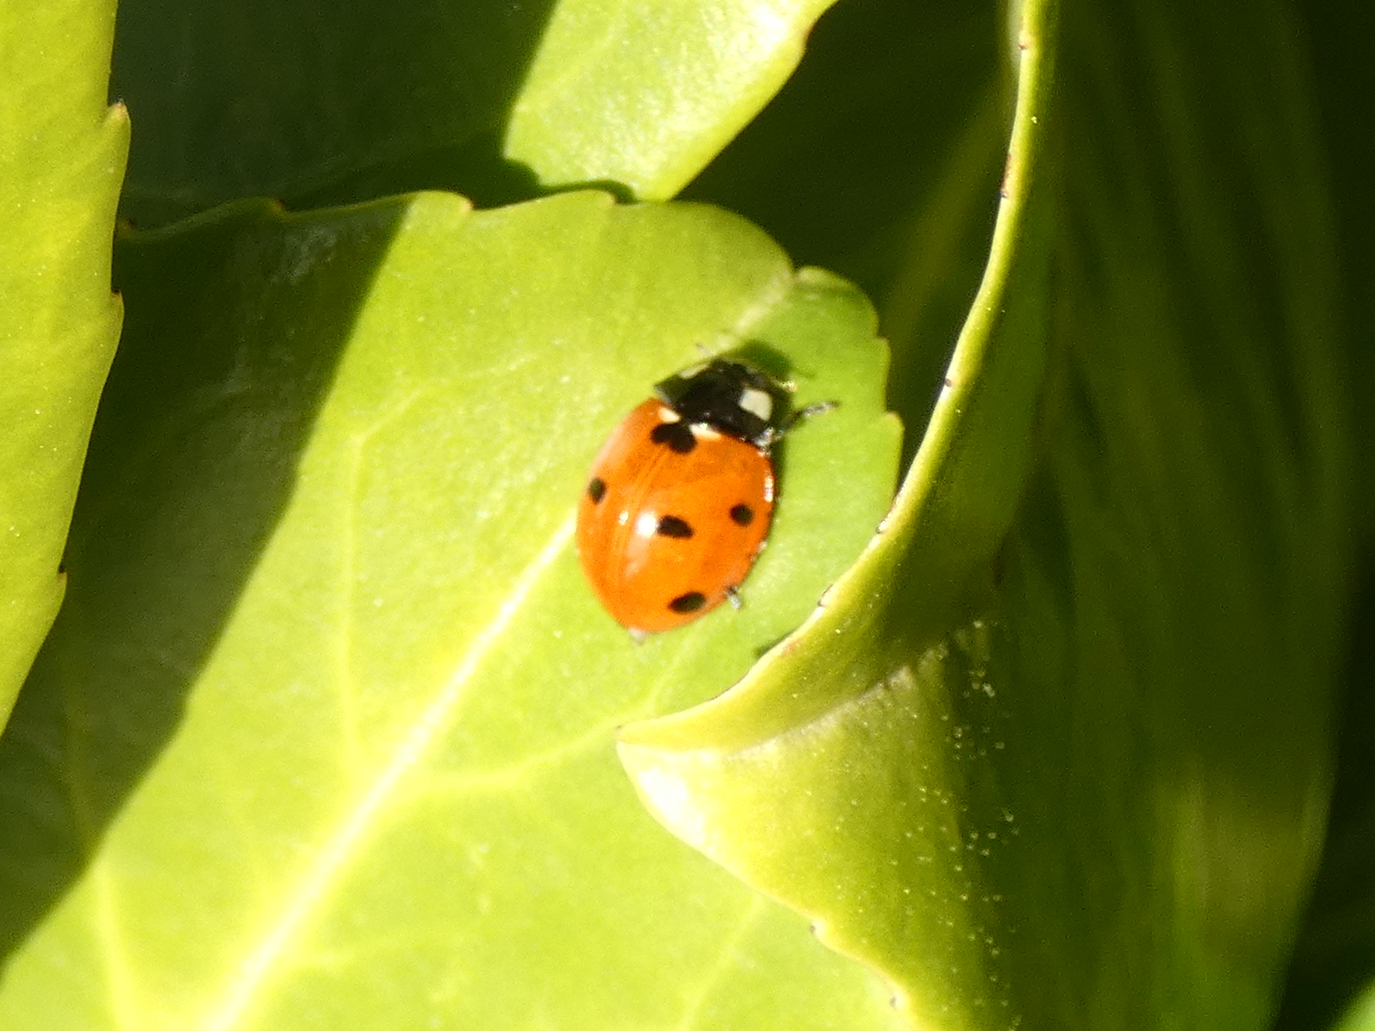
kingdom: Animalia
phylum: Arthropoda
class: Insecta
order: Coleoptera
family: Coccinellidae
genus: Coccinella
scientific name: Coccinella septempunctata
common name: Sevenspotted lady beetle
